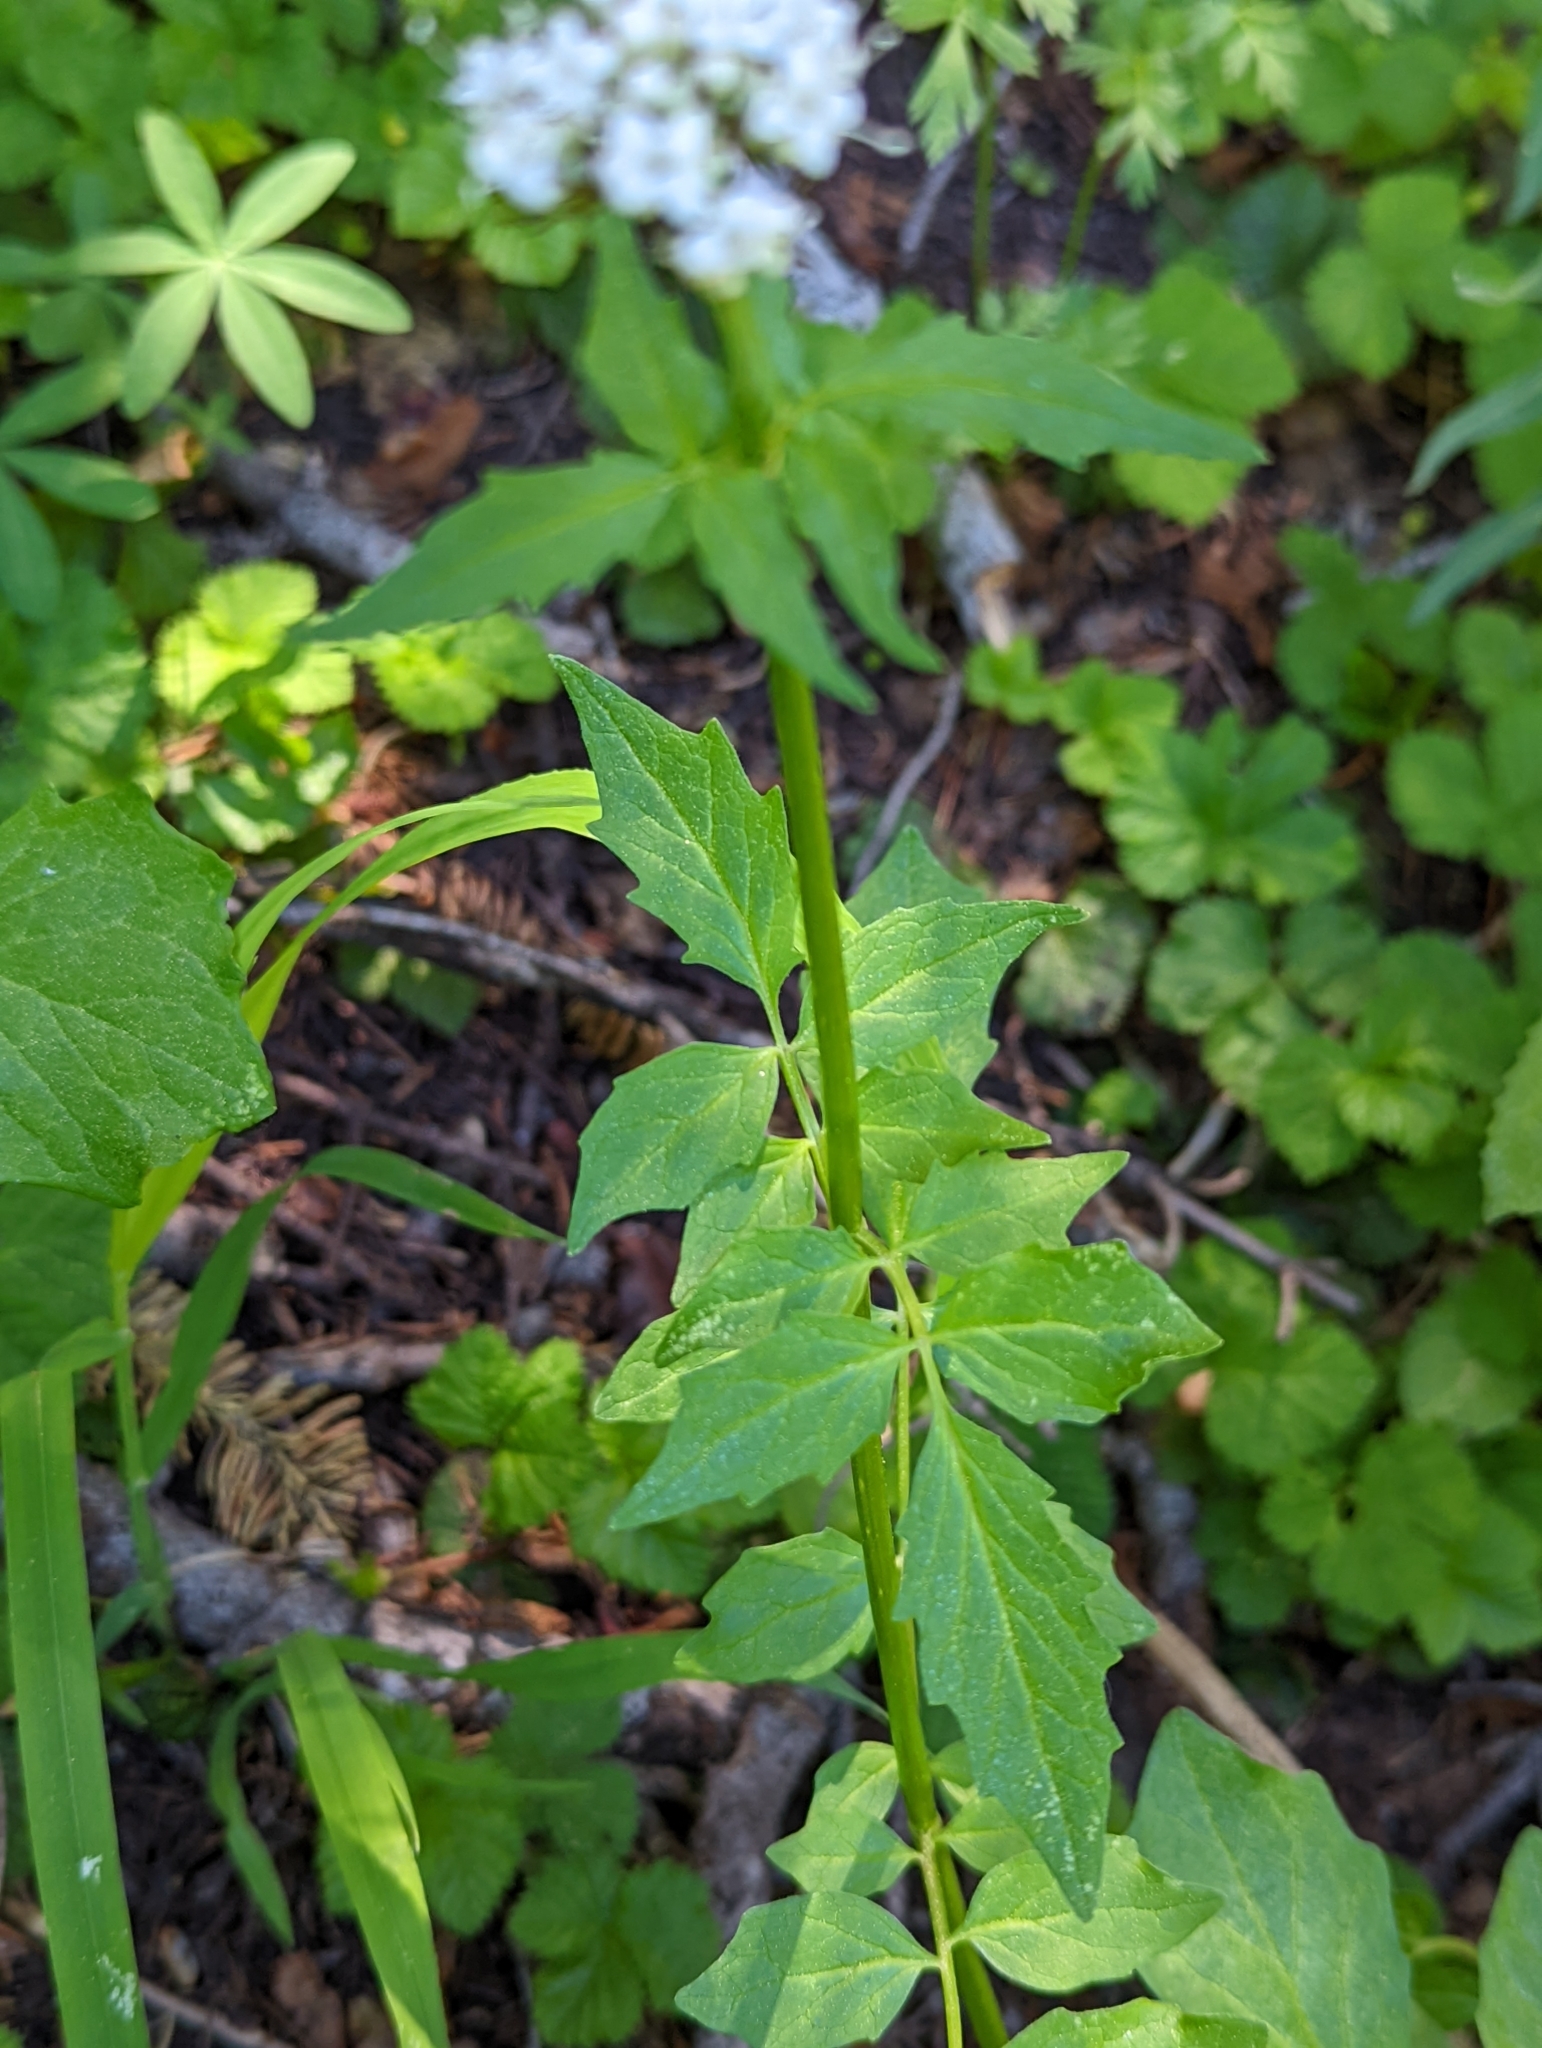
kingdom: Plantae
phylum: Tracheophyta
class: Magnoliopsida
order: Dipsacales
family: Caprifoliaceae
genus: Valeriana
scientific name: Valeriana sitchensis
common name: Pacific valerian
